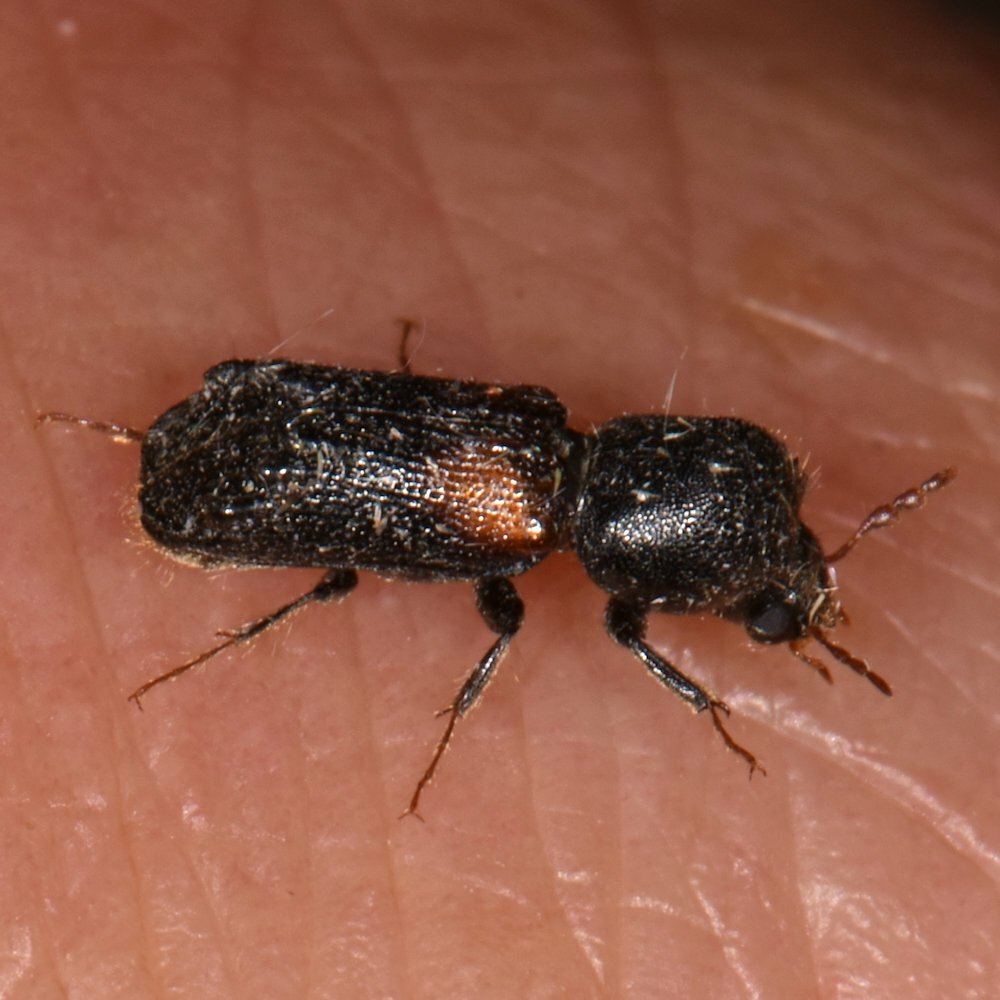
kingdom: Animalia
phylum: Arthropoda
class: Insecta
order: Coleoptera
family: Bostrichidae
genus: Xylobiops
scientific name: Xylobiops basilaris
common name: Red-shouldered bostrichid
